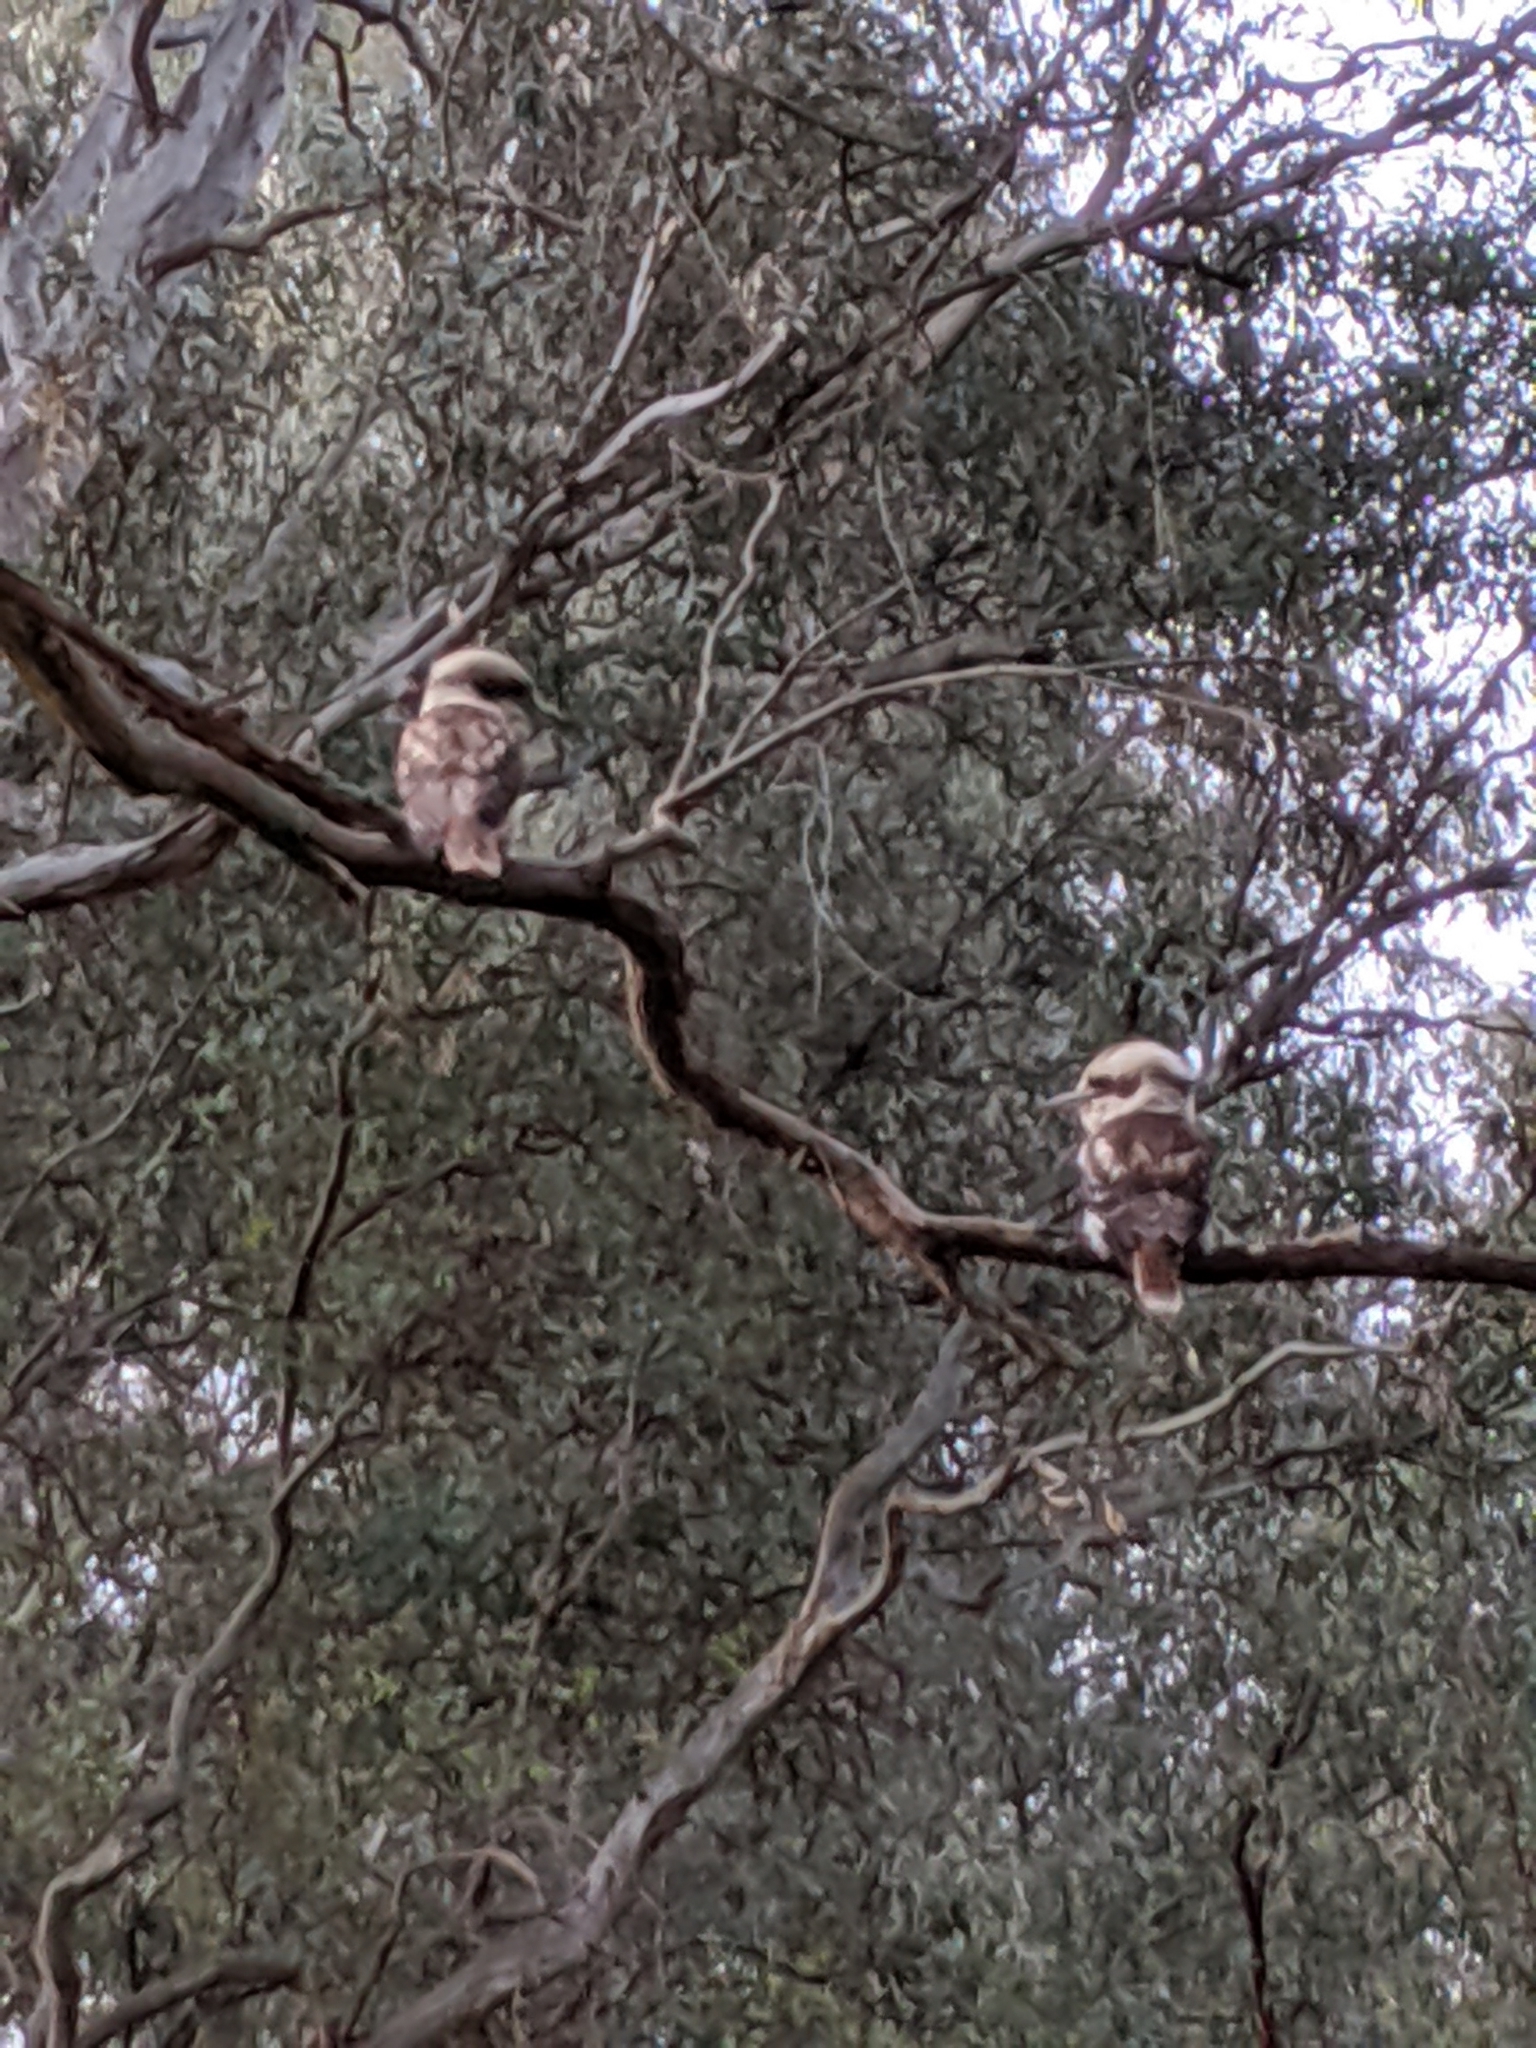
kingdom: Animalia
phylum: Chordata
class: Aves
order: Coraciiformes
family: Alcedinidae
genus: Dacelo
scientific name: Dacelo novaeguineae
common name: Laughing kookaburra
